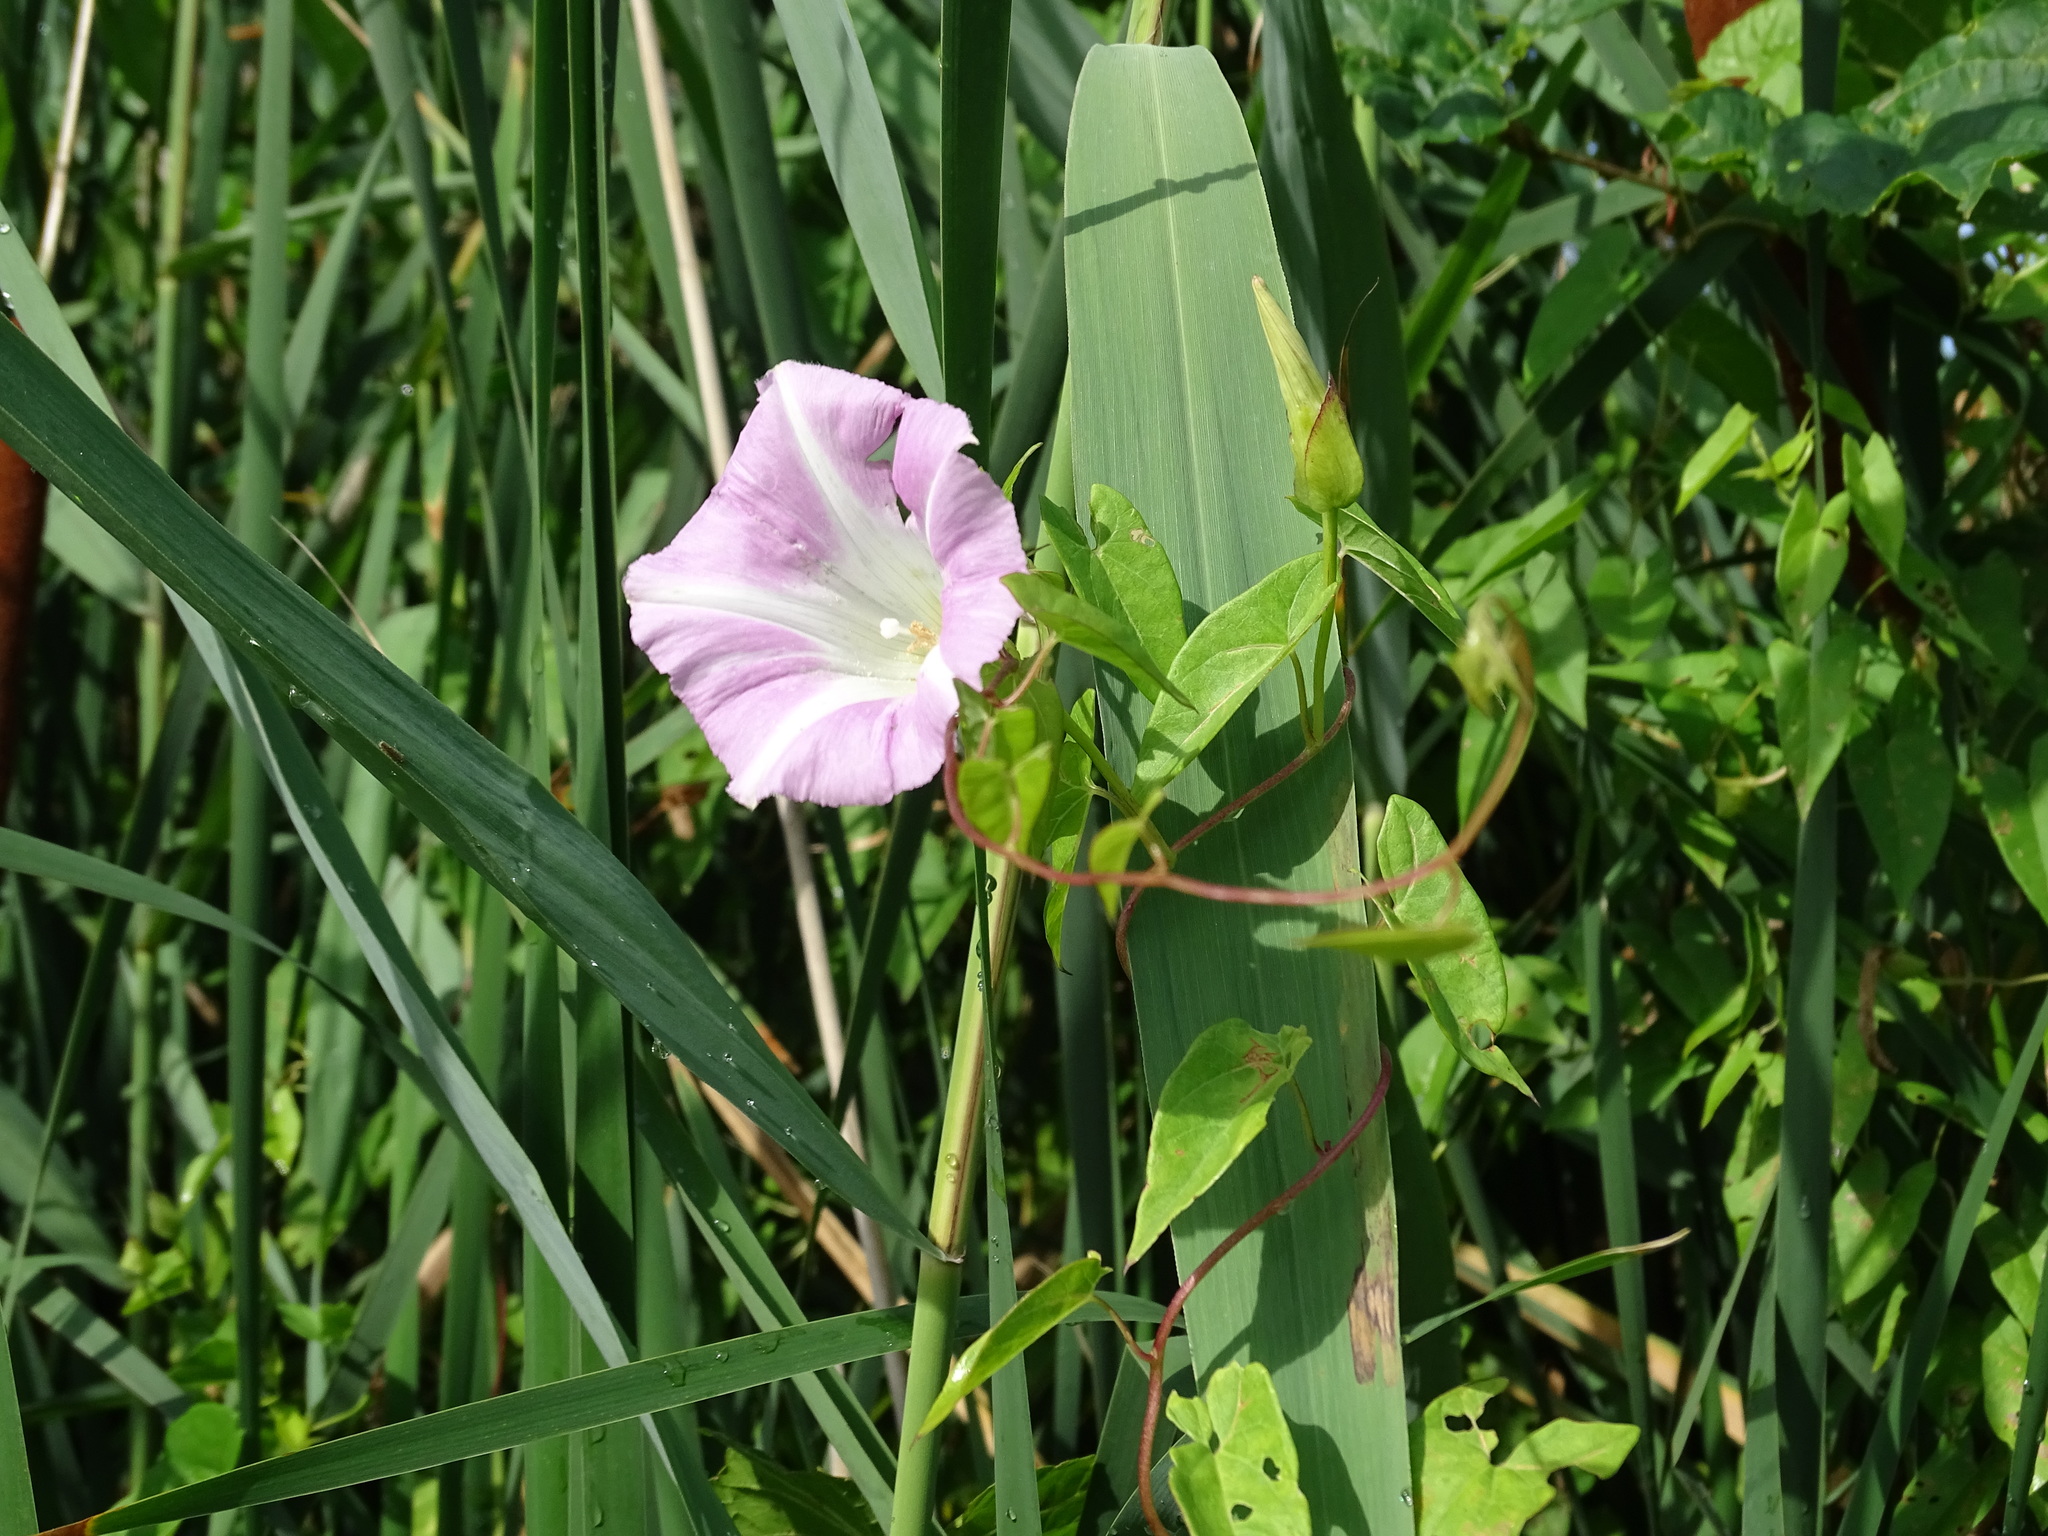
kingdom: Plantae
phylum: Tracheophyta
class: Magnoliopsida
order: Solanales
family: Convolvulaceae
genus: Calystegia
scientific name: Calystegia sepium
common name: Hedge bindweed
